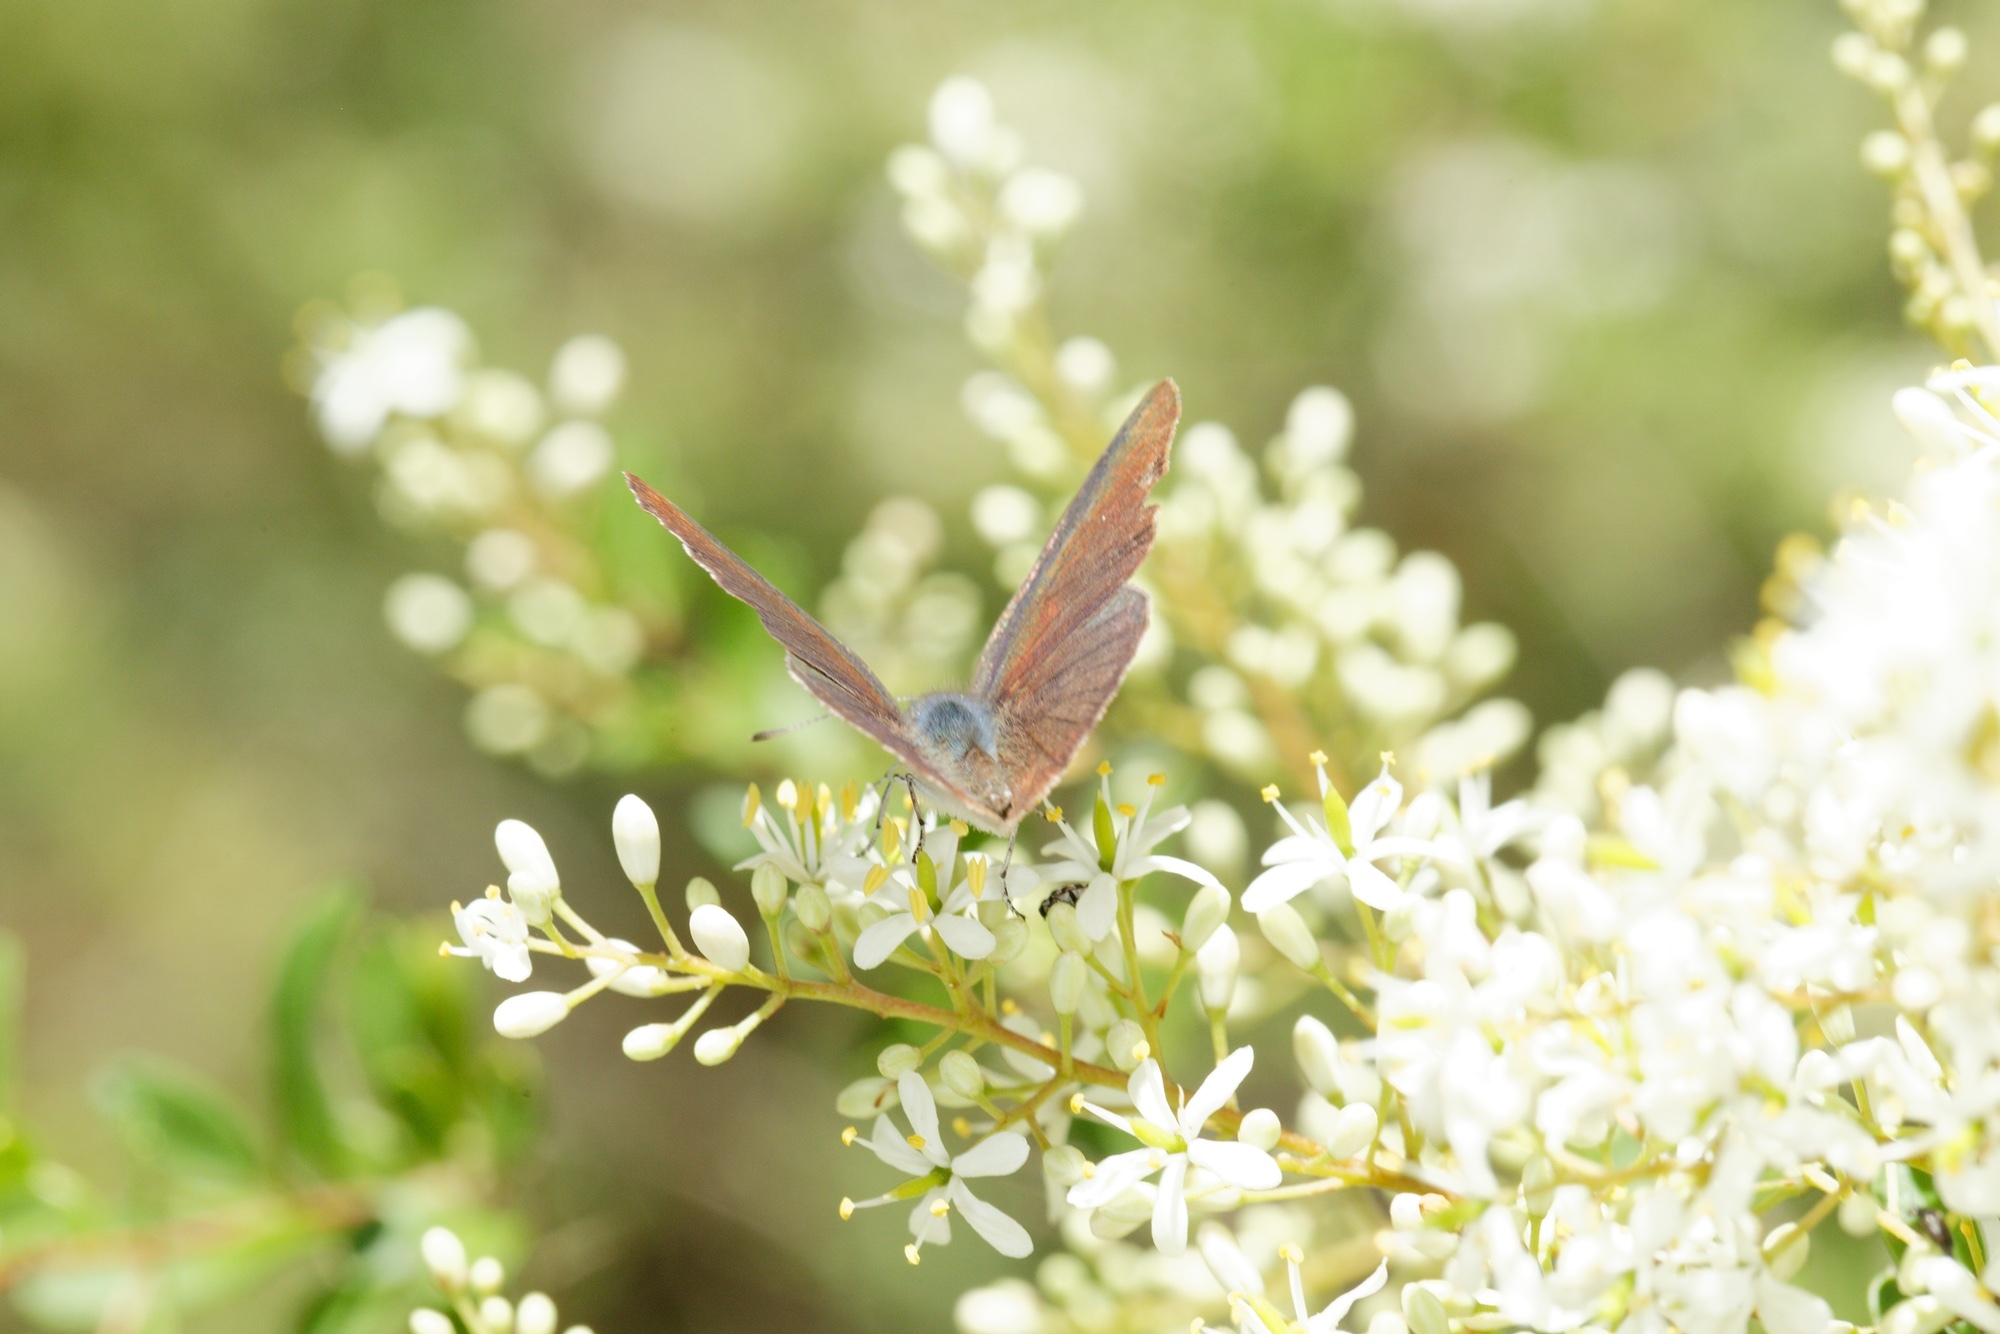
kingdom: Animalia
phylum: Arthropoda
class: Insecta
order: Lepidoptera
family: Lycaenidae
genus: Candalides
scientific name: Candalides
